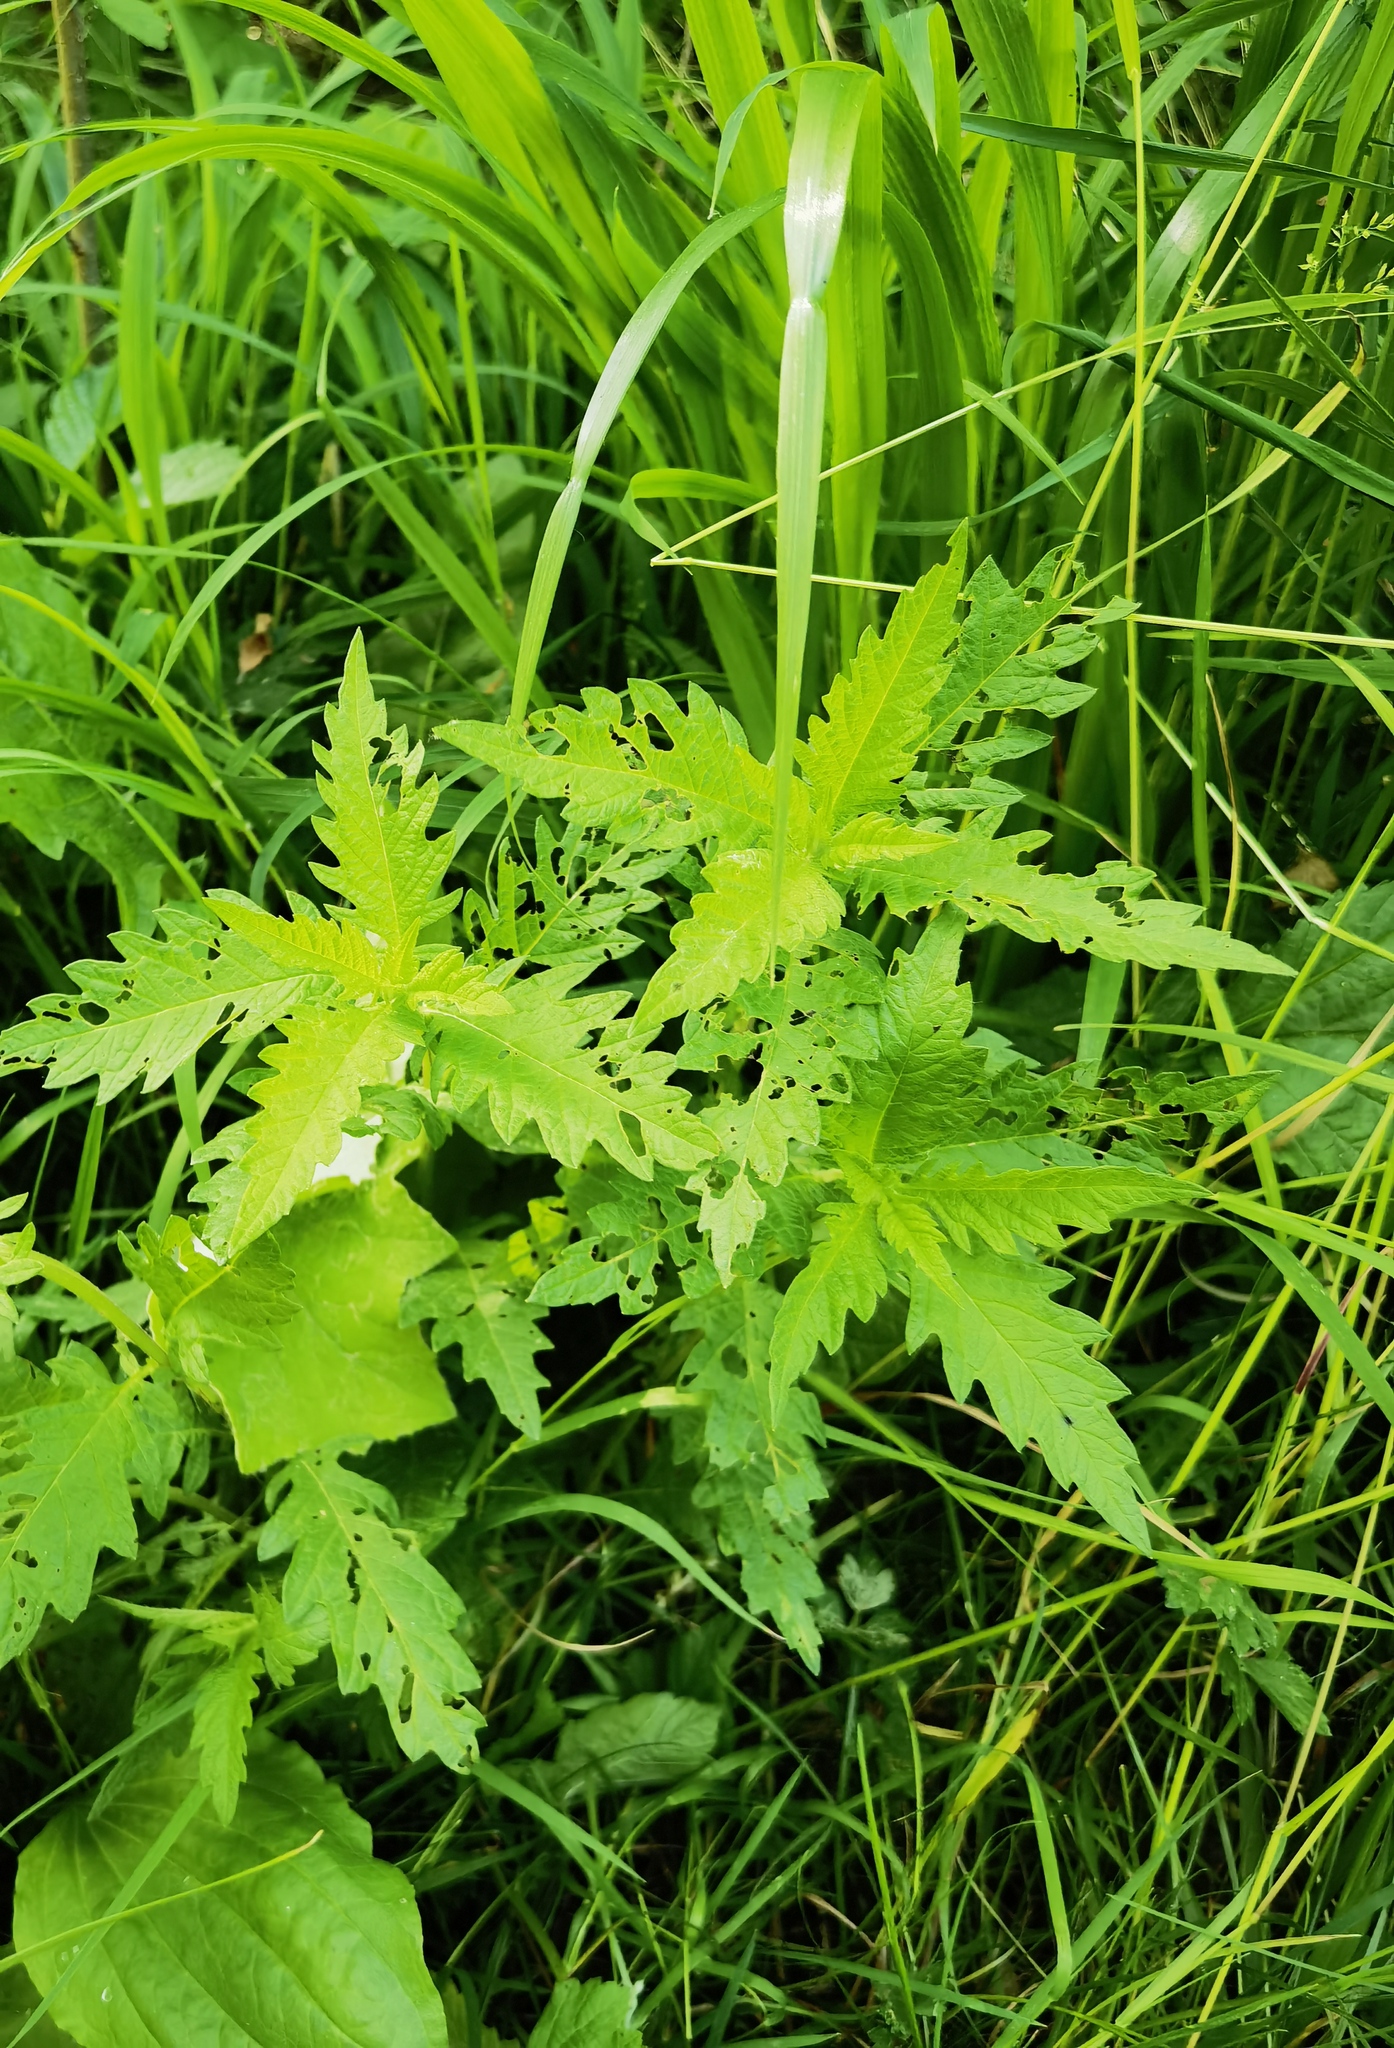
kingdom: Plantae
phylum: Tracheophyta
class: Magnoliopsida
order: Lamiales
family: Lamiaceae
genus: Lycopus
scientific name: Lycopus europaeus
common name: European bugleweed
